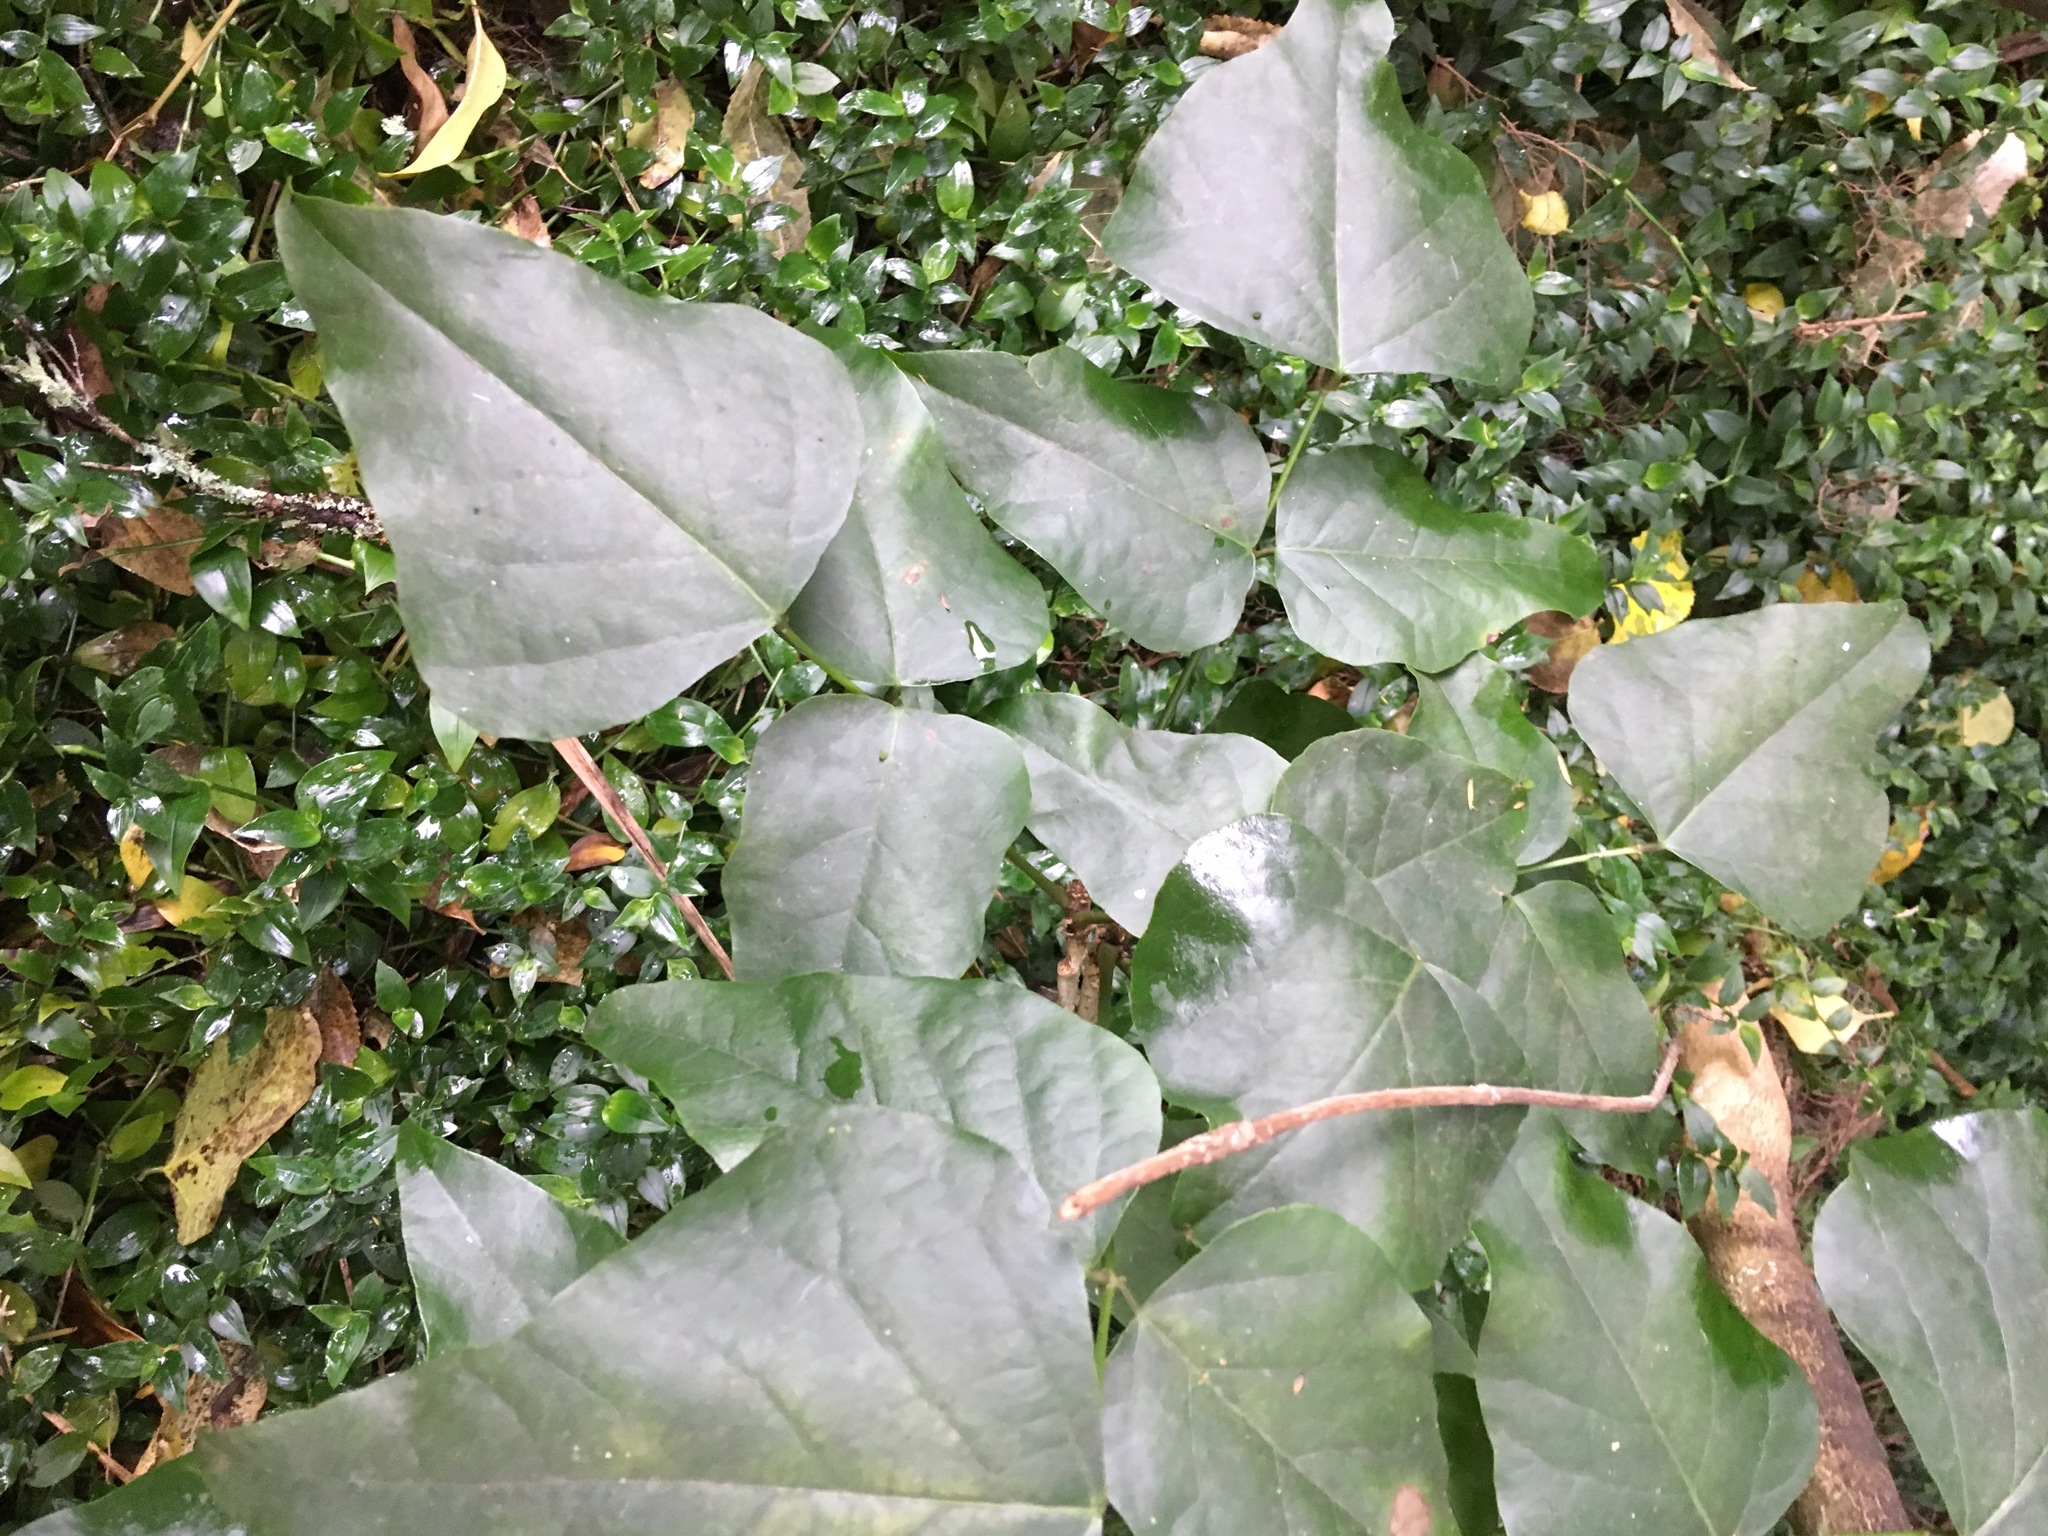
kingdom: Plantae
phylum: Tracheophyta
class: Magnoliopsida
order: Fabales
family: Fabaceae
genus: Erythrina
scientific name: Erythrina sykesii
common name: Coraltree
